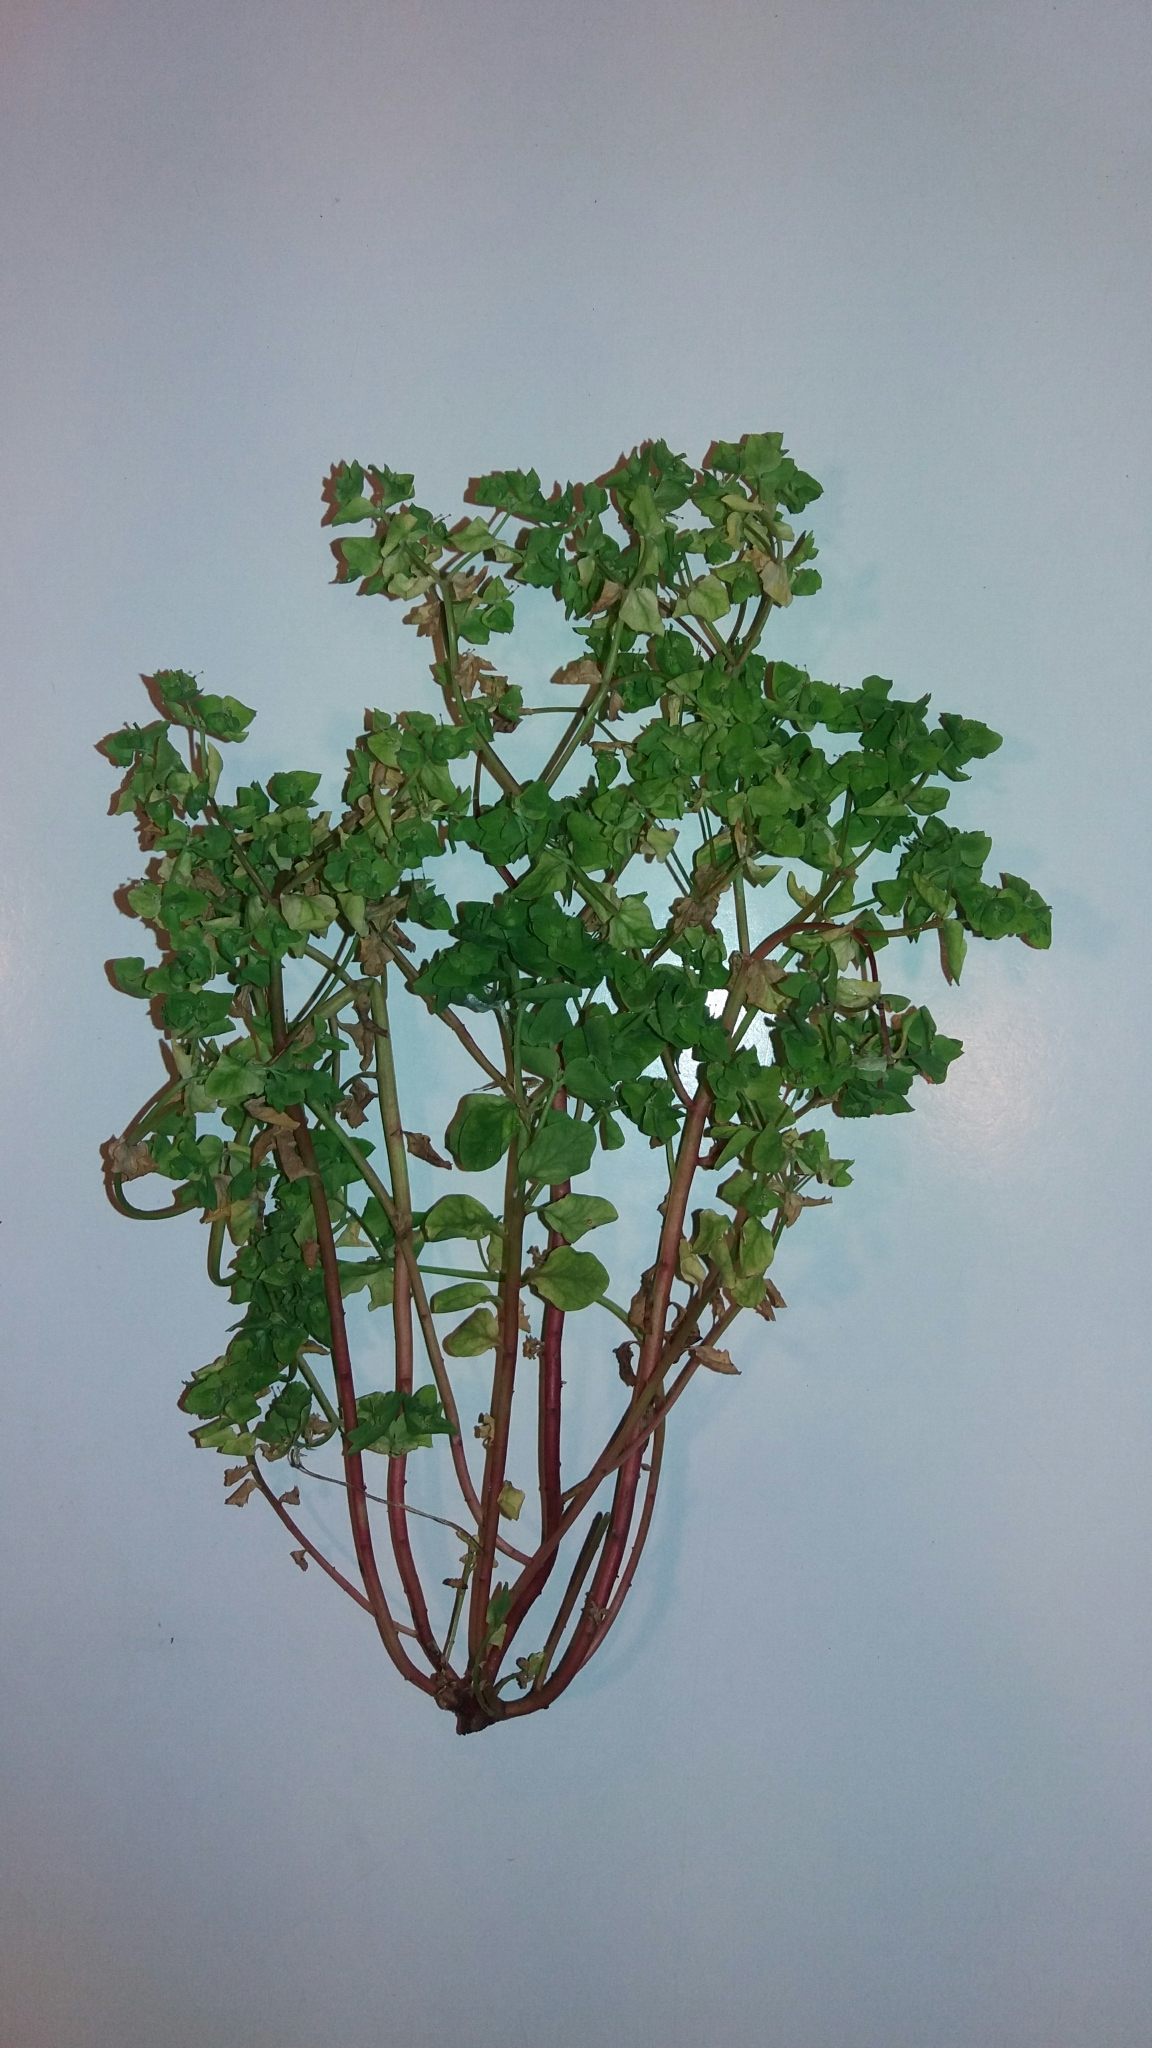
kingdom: Plantae
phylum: Tracheophyta
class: Magnoliopsida
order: Malpighiales
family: Euphorbiaceae
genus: Euphorbia
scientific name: Euphorbia peplus
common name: Petty spurge
